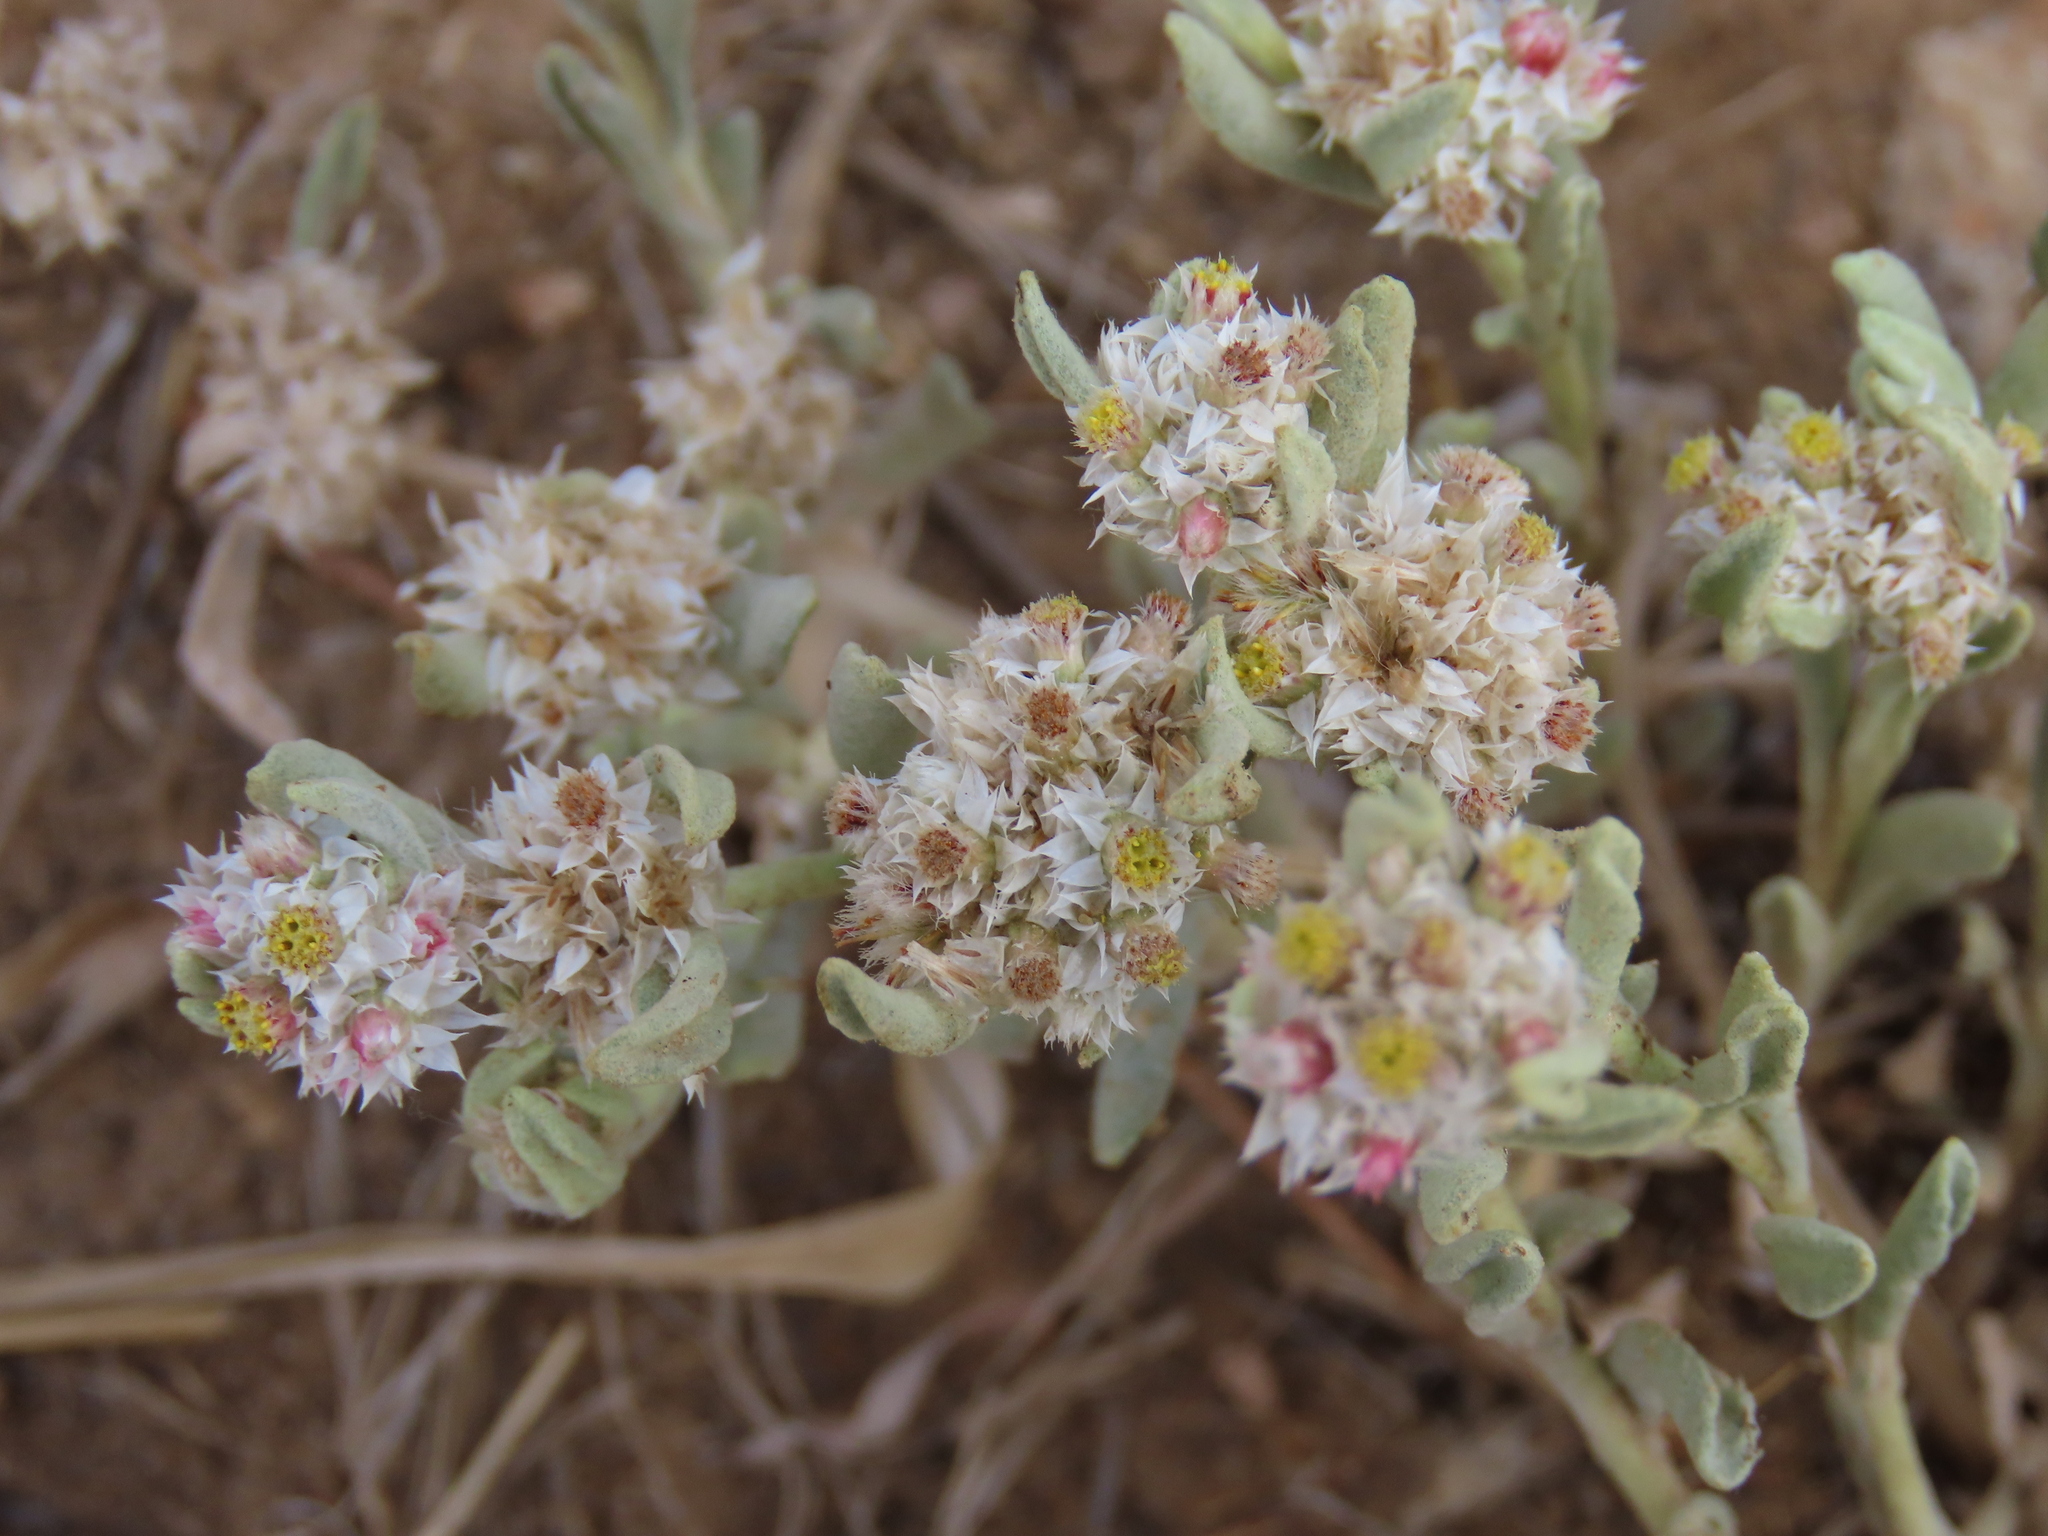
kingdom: Plantae
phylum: Tracheophyta
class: Magnoliopsida
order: Asterales
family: Asteraceae
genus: Helichrysum
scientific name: Helichrysum candolleanum
